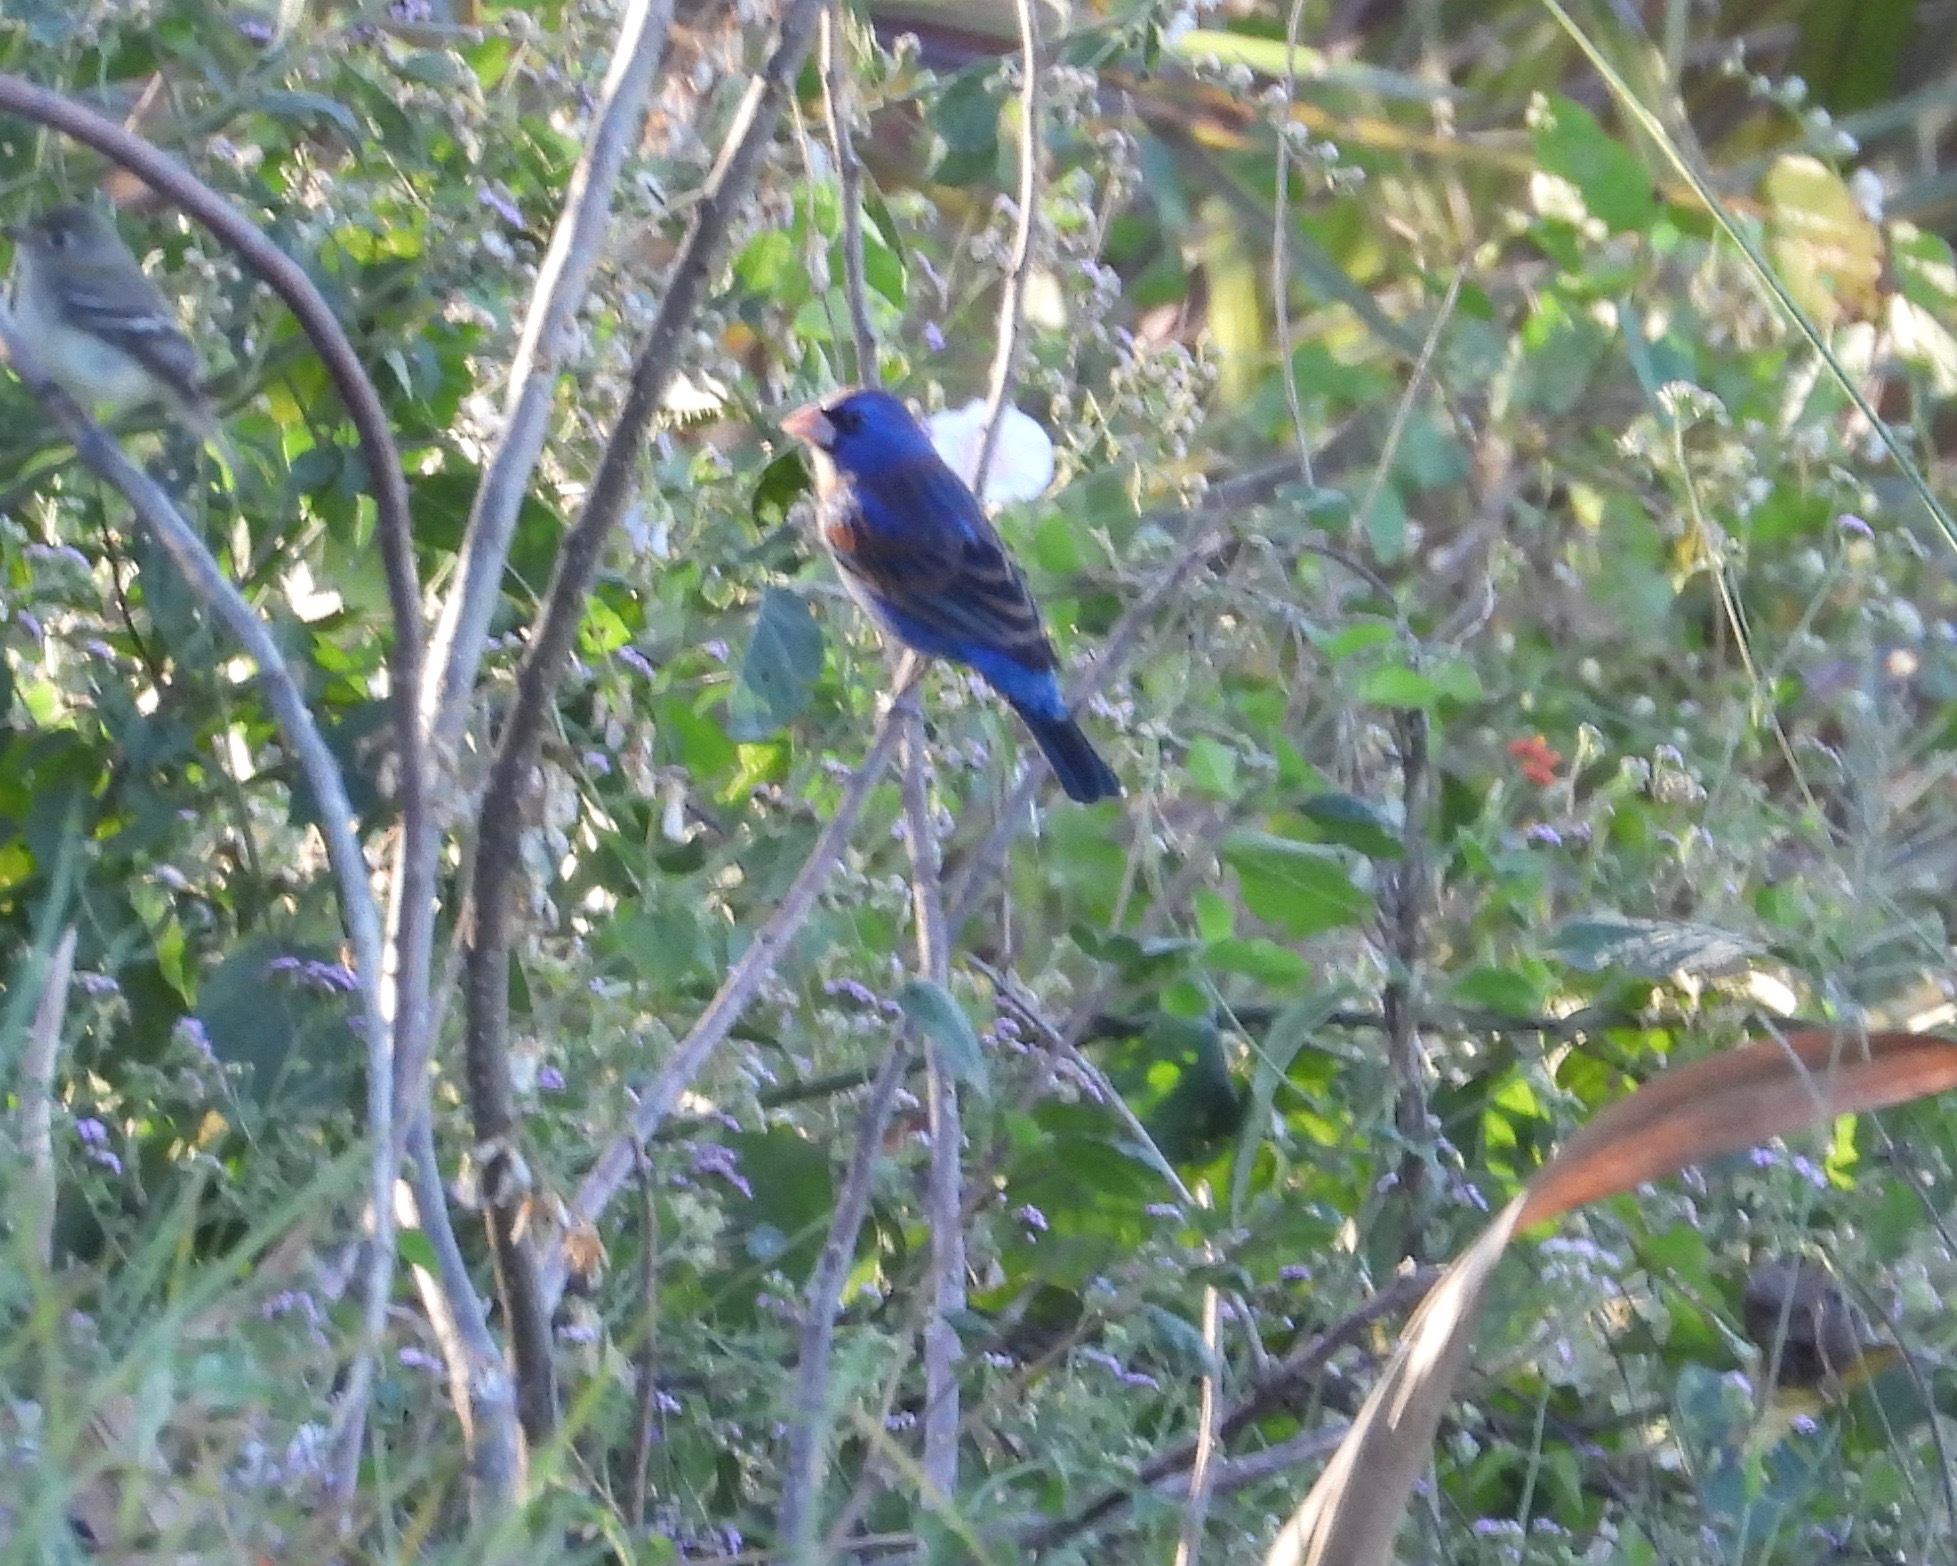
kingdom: Animalia
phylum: Chordata
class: Aves
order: Passeriformes
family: Cardinalidae
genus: Passerina
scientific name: Passerina caerulea
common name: Blue grosbeak
